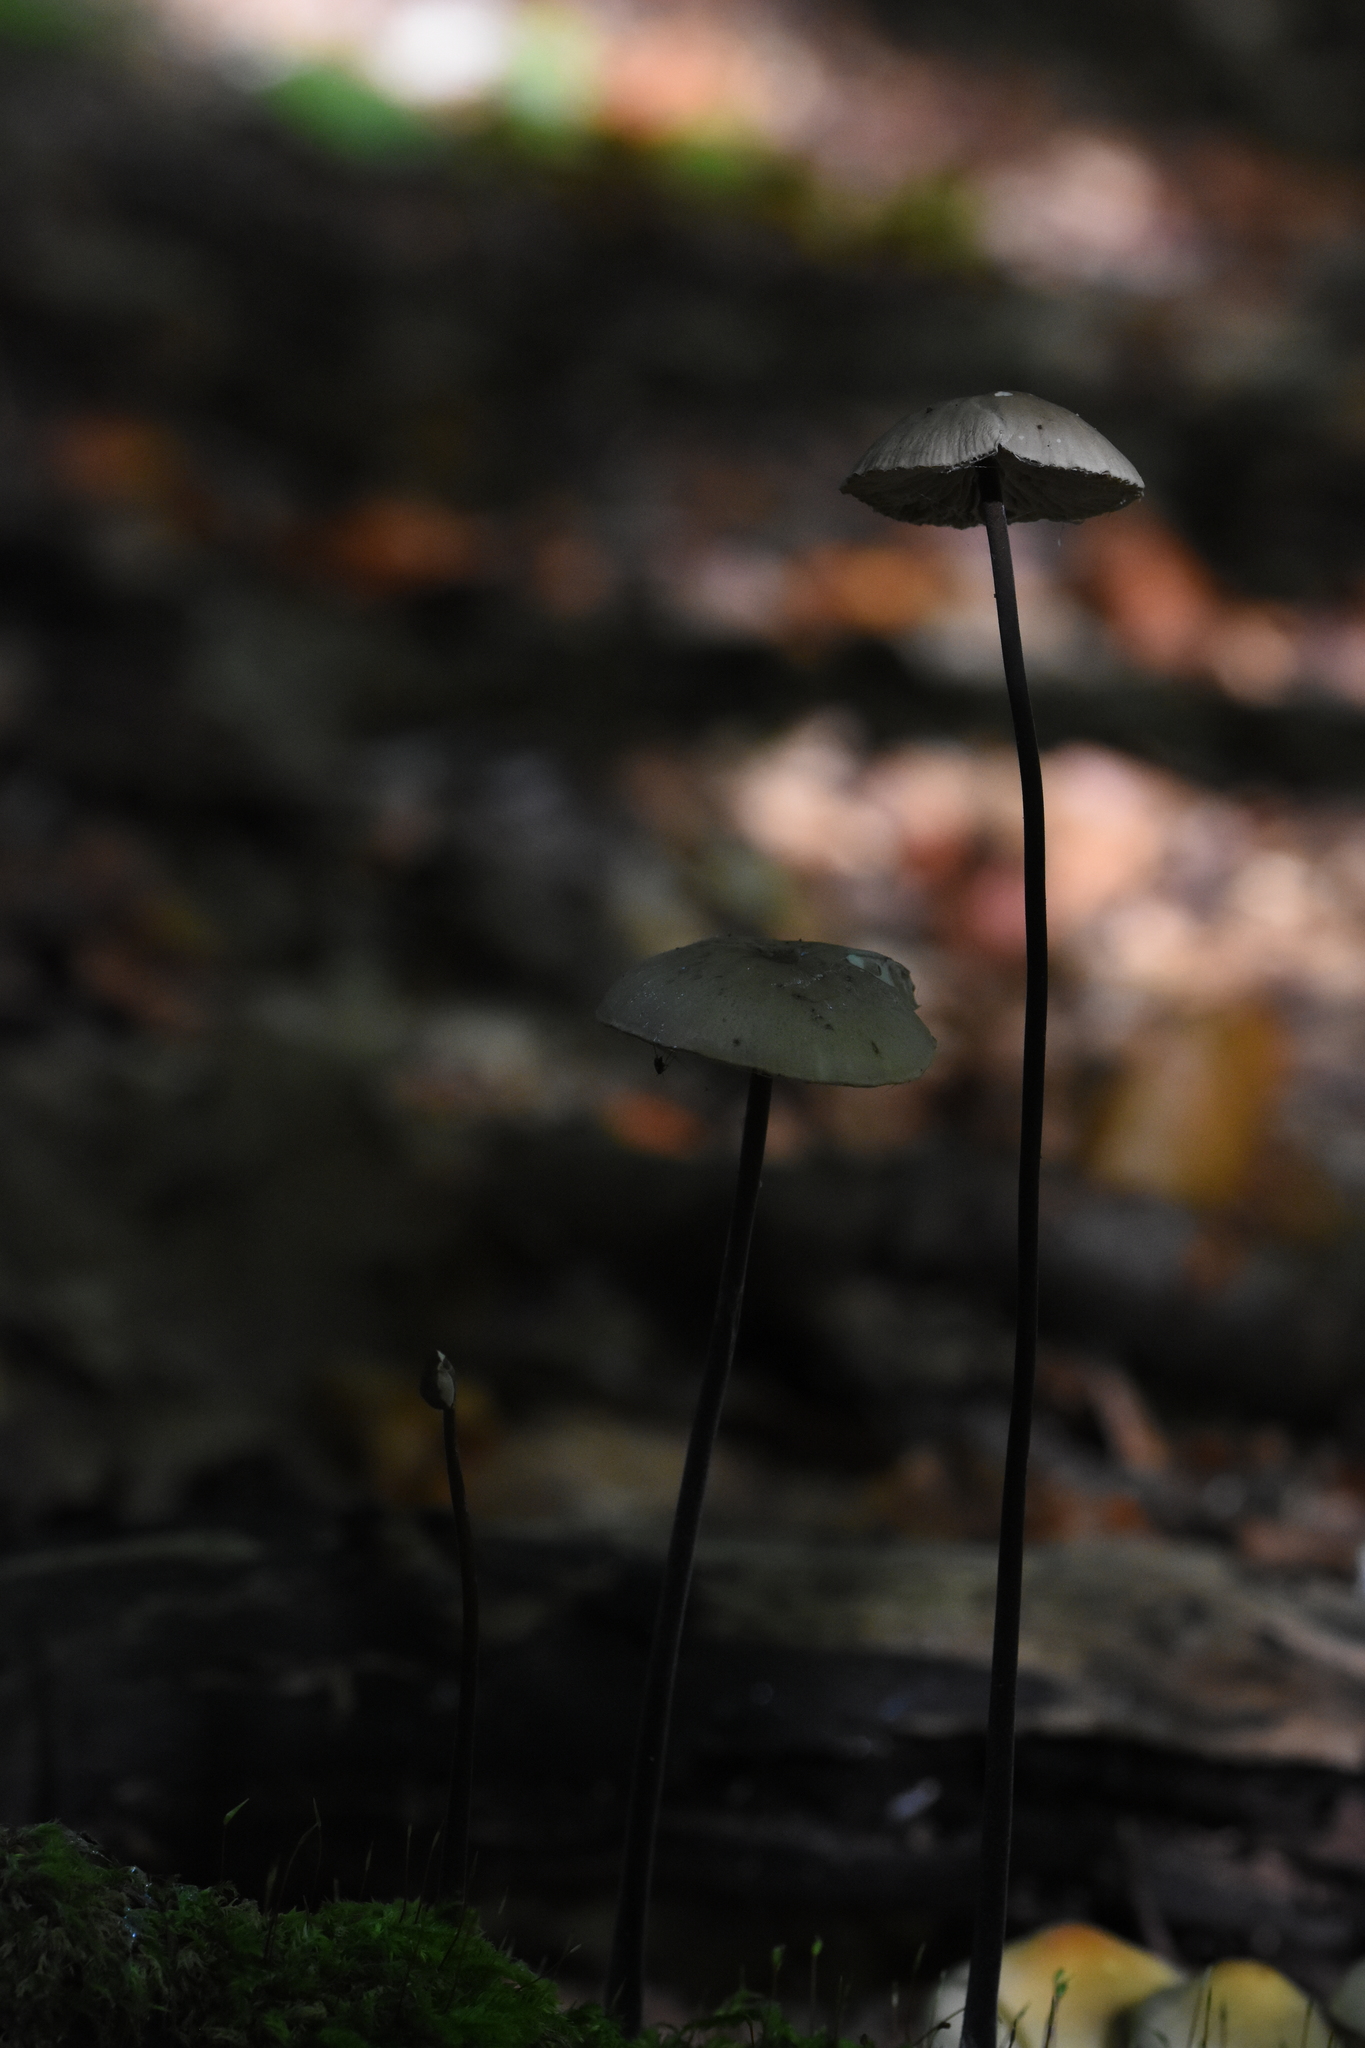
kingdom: Fungi
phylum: Basidiomycota
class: Agaricomycetes
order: Agaricales
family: Omphalotaceae
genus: Mycetinis
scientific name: Mycetinis copelandii
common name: Garlic mushroom
